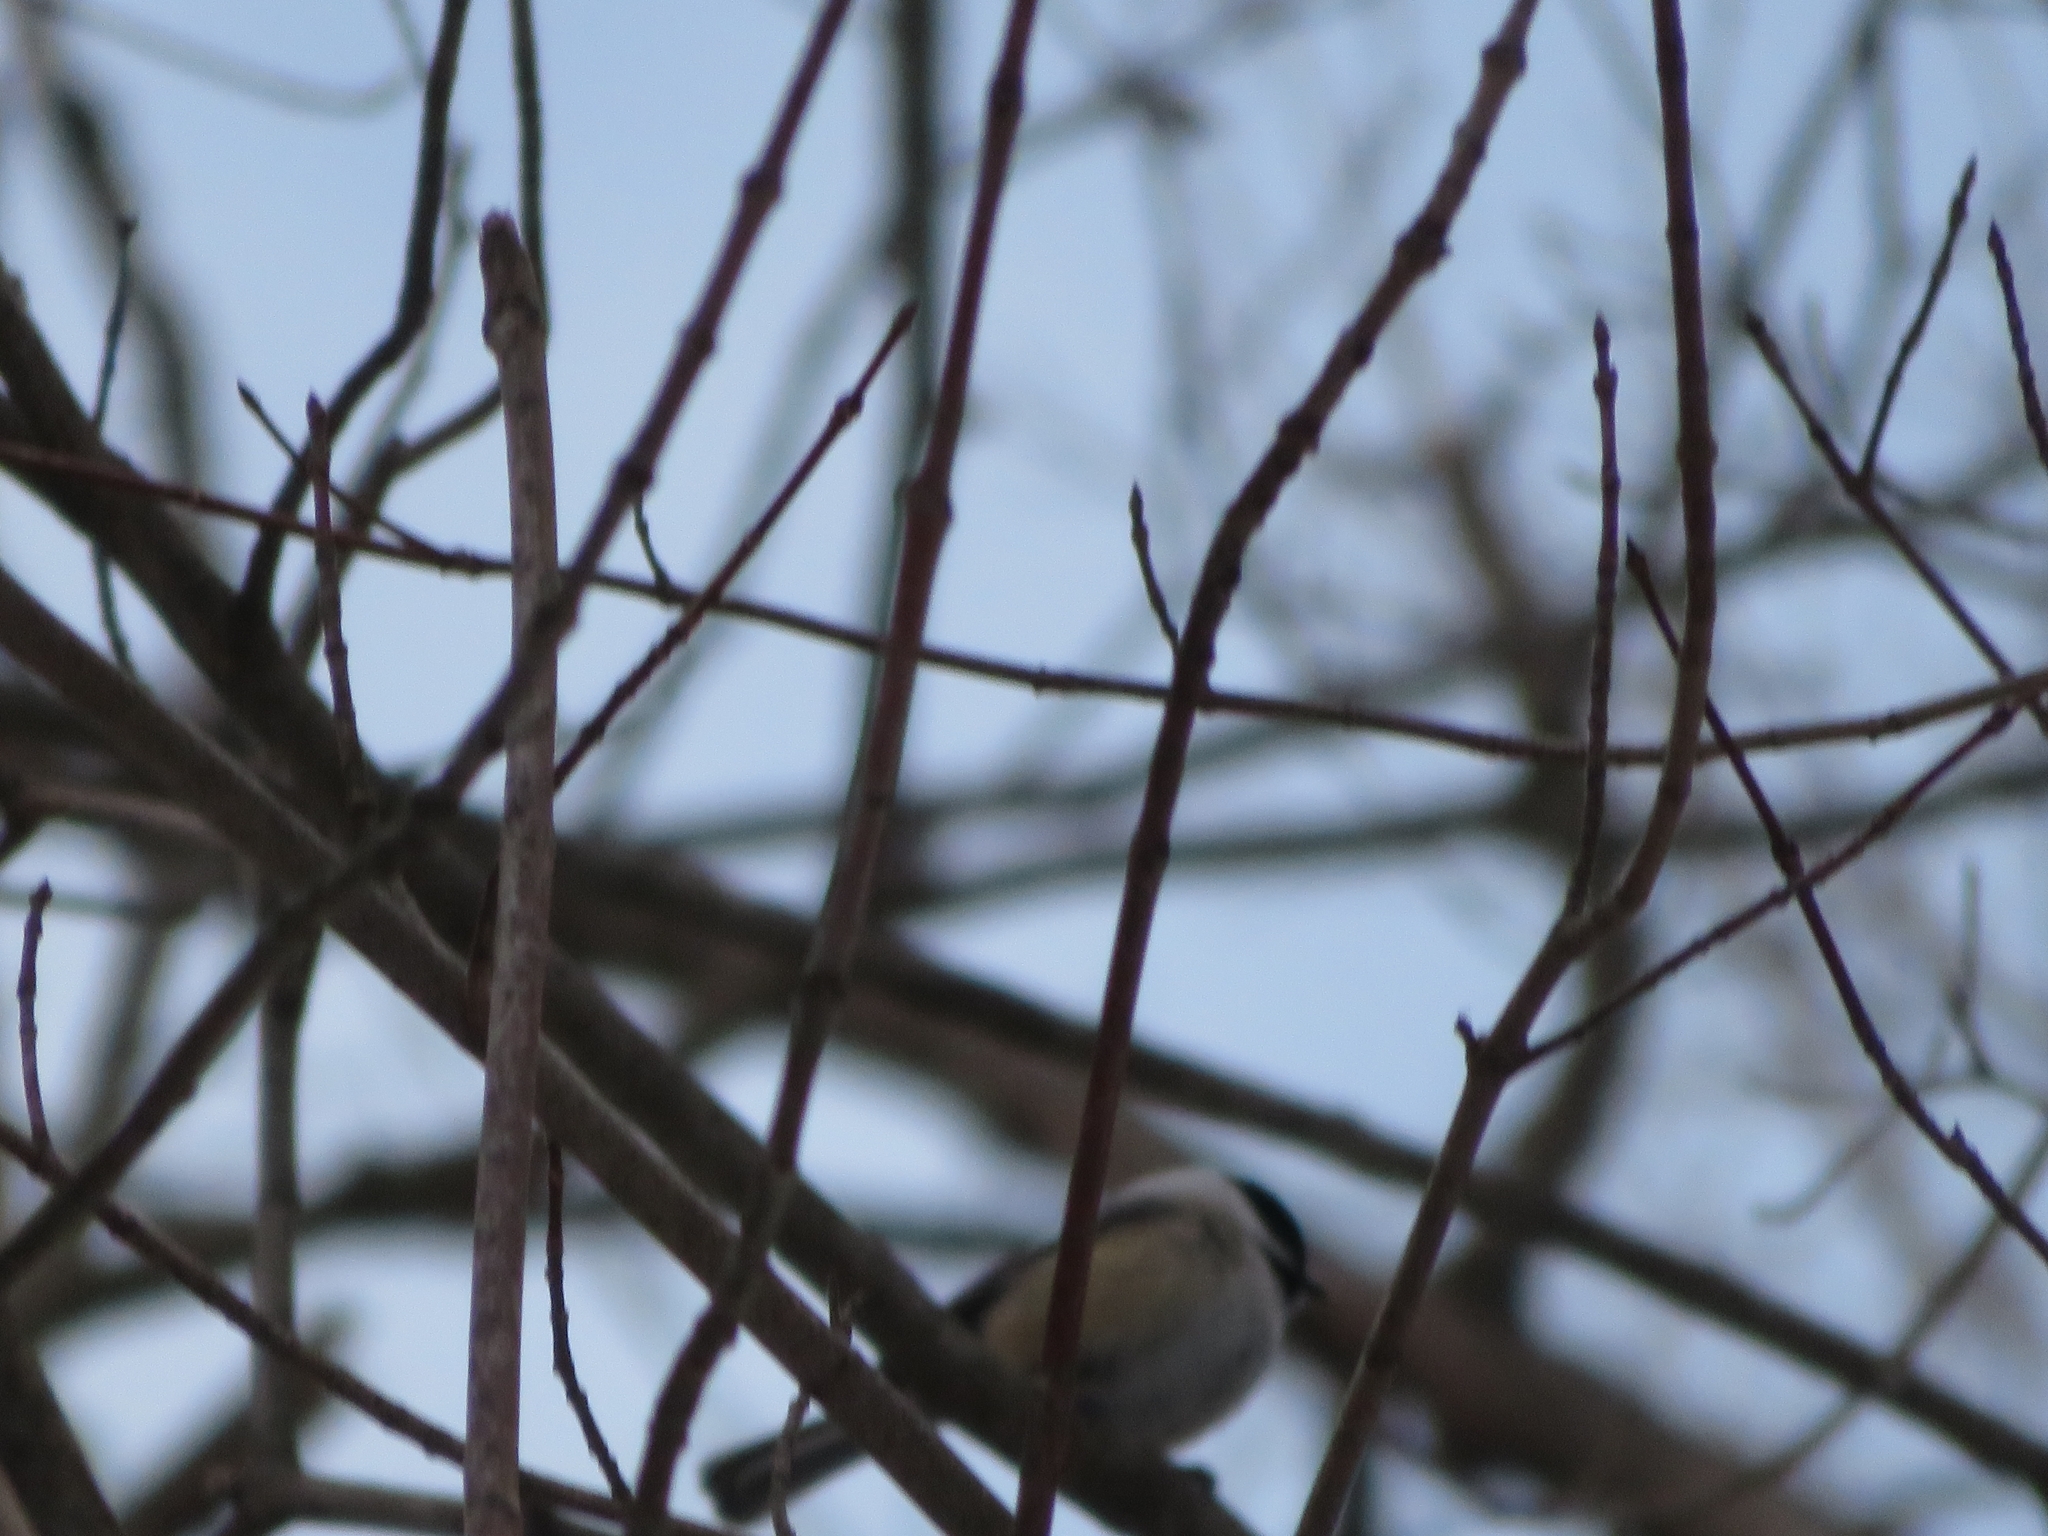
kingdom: Animalia
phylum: Chordata
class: Aves
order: Passeriformes
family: Paridae
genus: Poecile
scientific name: Poecile atricapillus
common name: Black-capped chickadee
